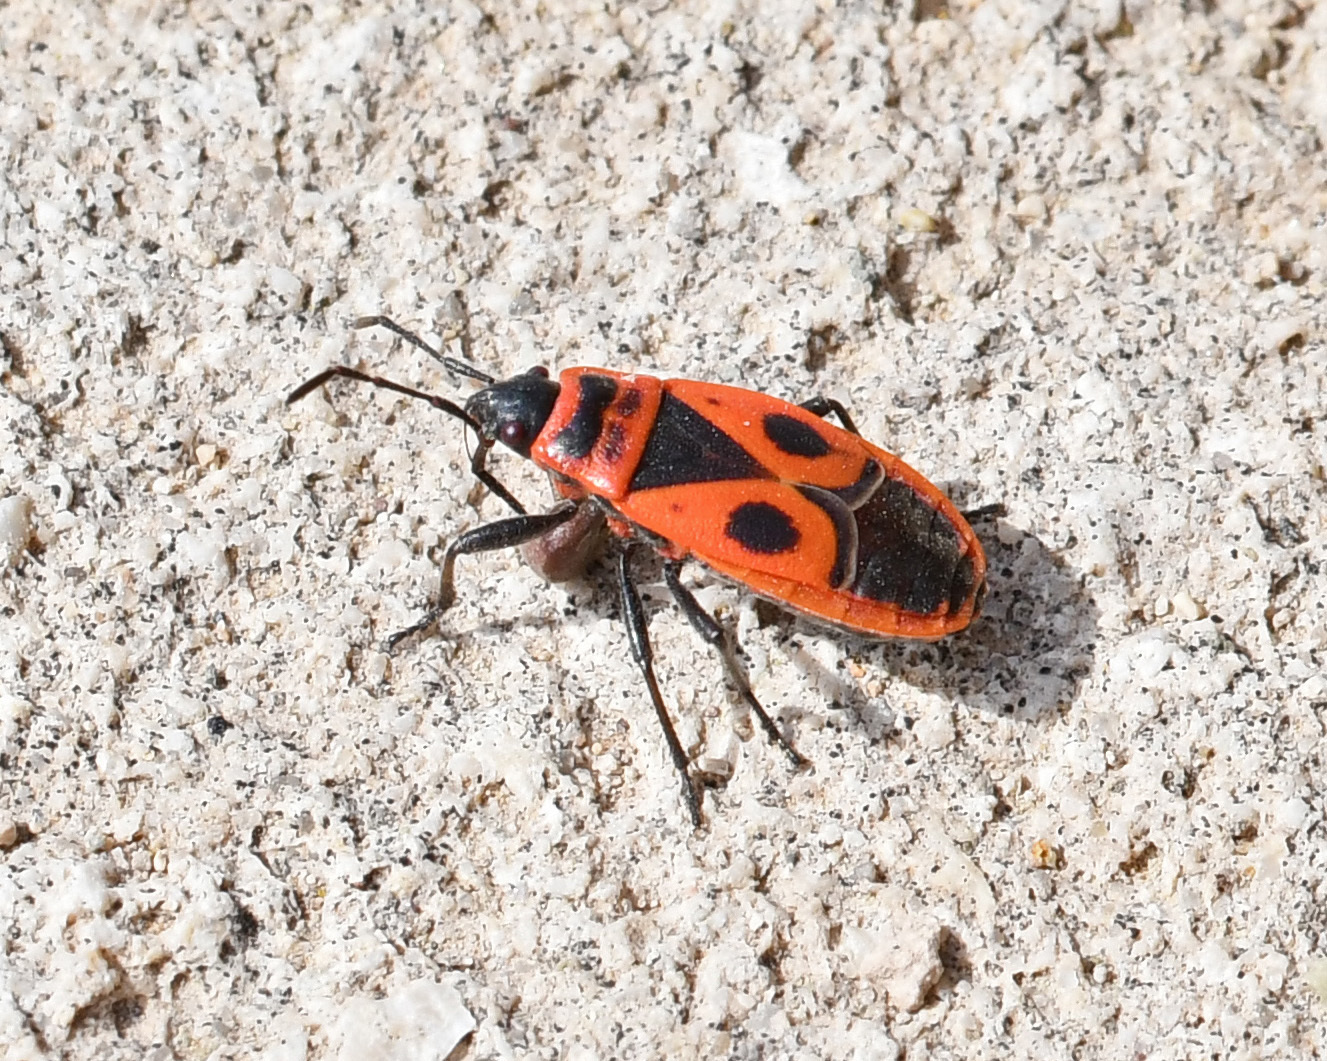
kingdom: Animalia
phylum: Arthropoda
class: Insecta
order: Hemiptera
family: Pyrrhocoridae
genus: Pyrrhocoris
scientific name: Pyrrhocoris apterus
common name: Firebug
